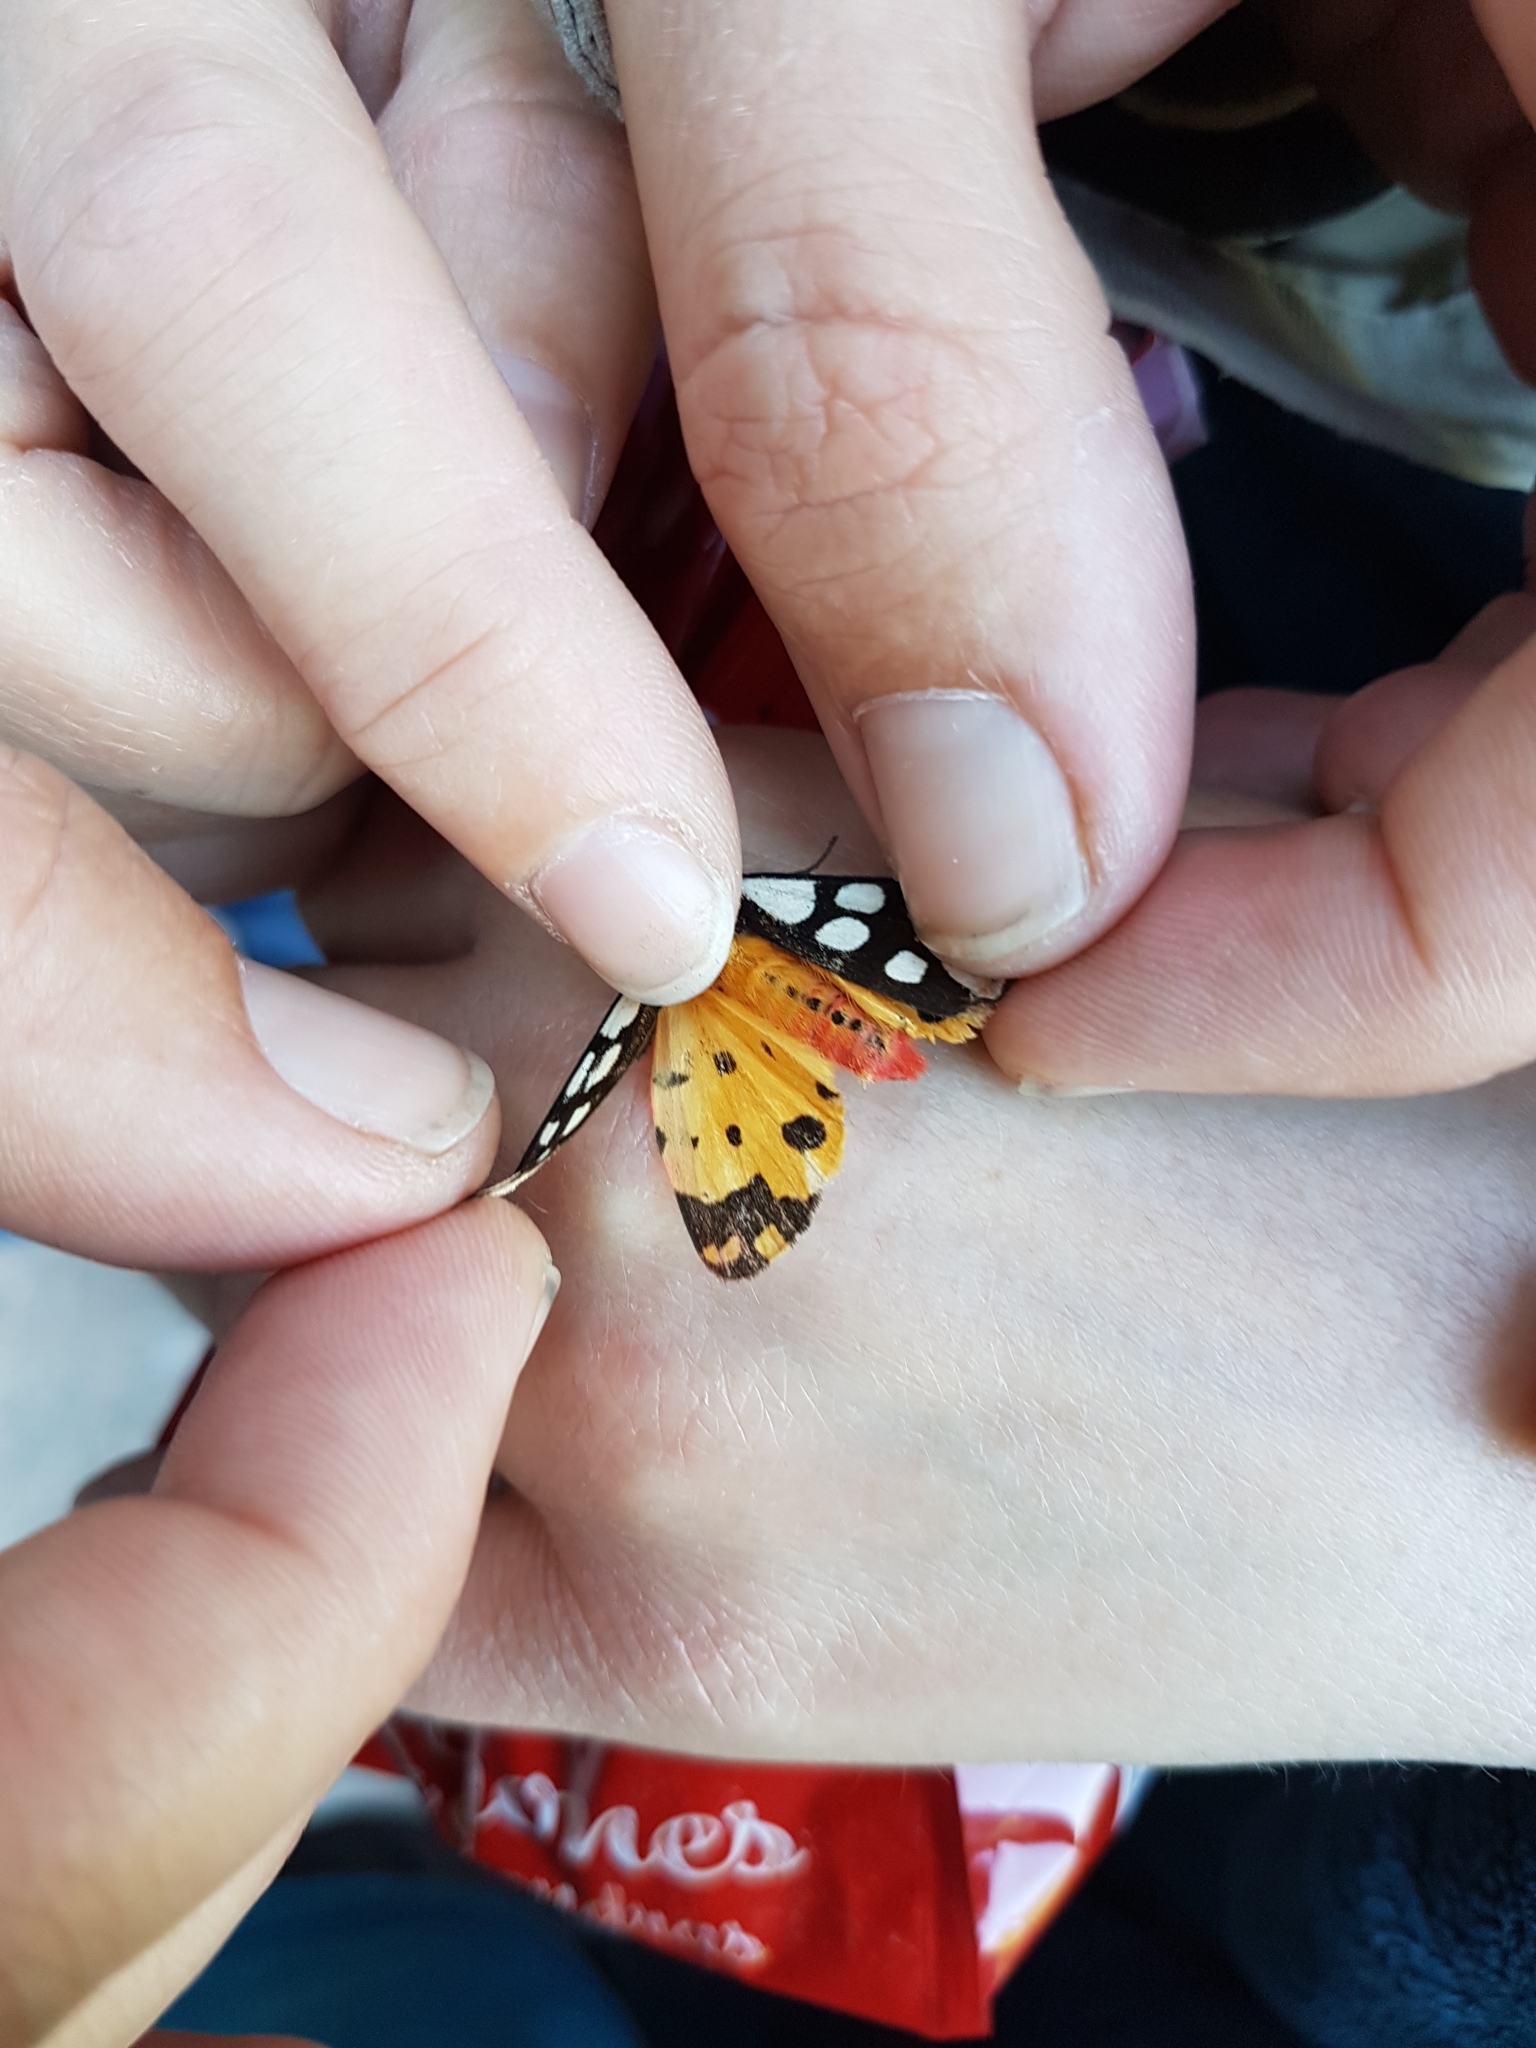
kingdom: Animalia
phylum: Arthropoda
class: Insecta
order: Lepidoptera
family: Erebidae
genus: Epicallia
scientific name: Epicallia villica
